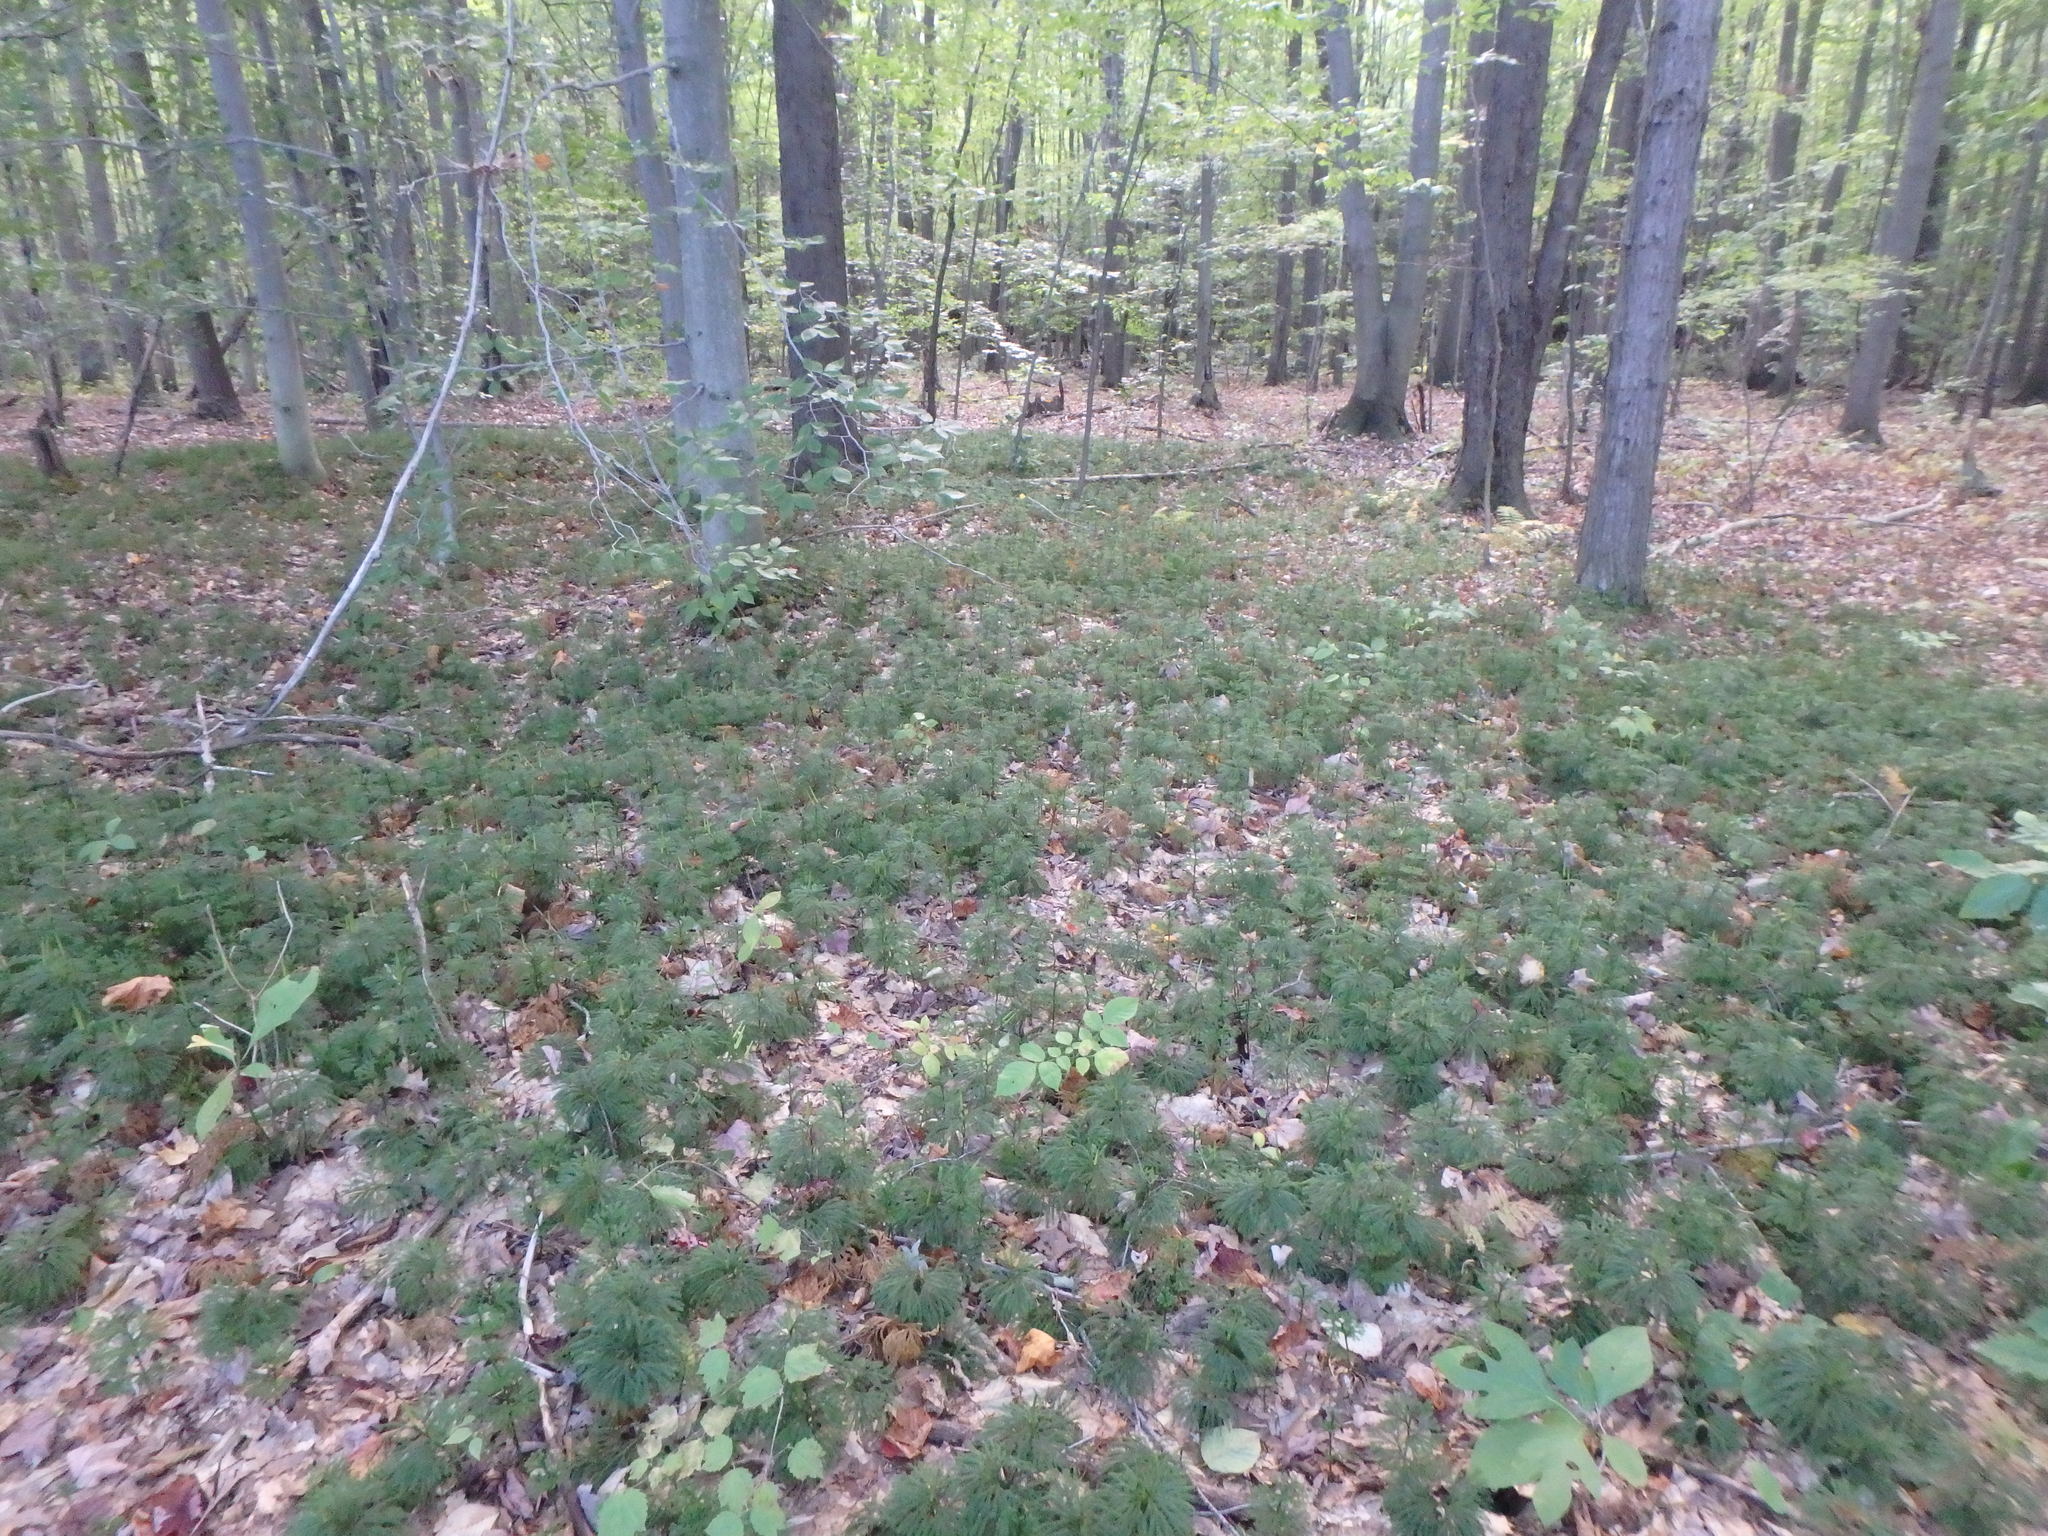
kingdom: Plantae
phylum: Tracheophyta
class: Lycopodiopsida
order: Lycopodiales
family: Lycopodiaceae
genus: Dendrolycopodium
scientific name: Dendrolycopodium obscurum
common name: Common ground-pine
